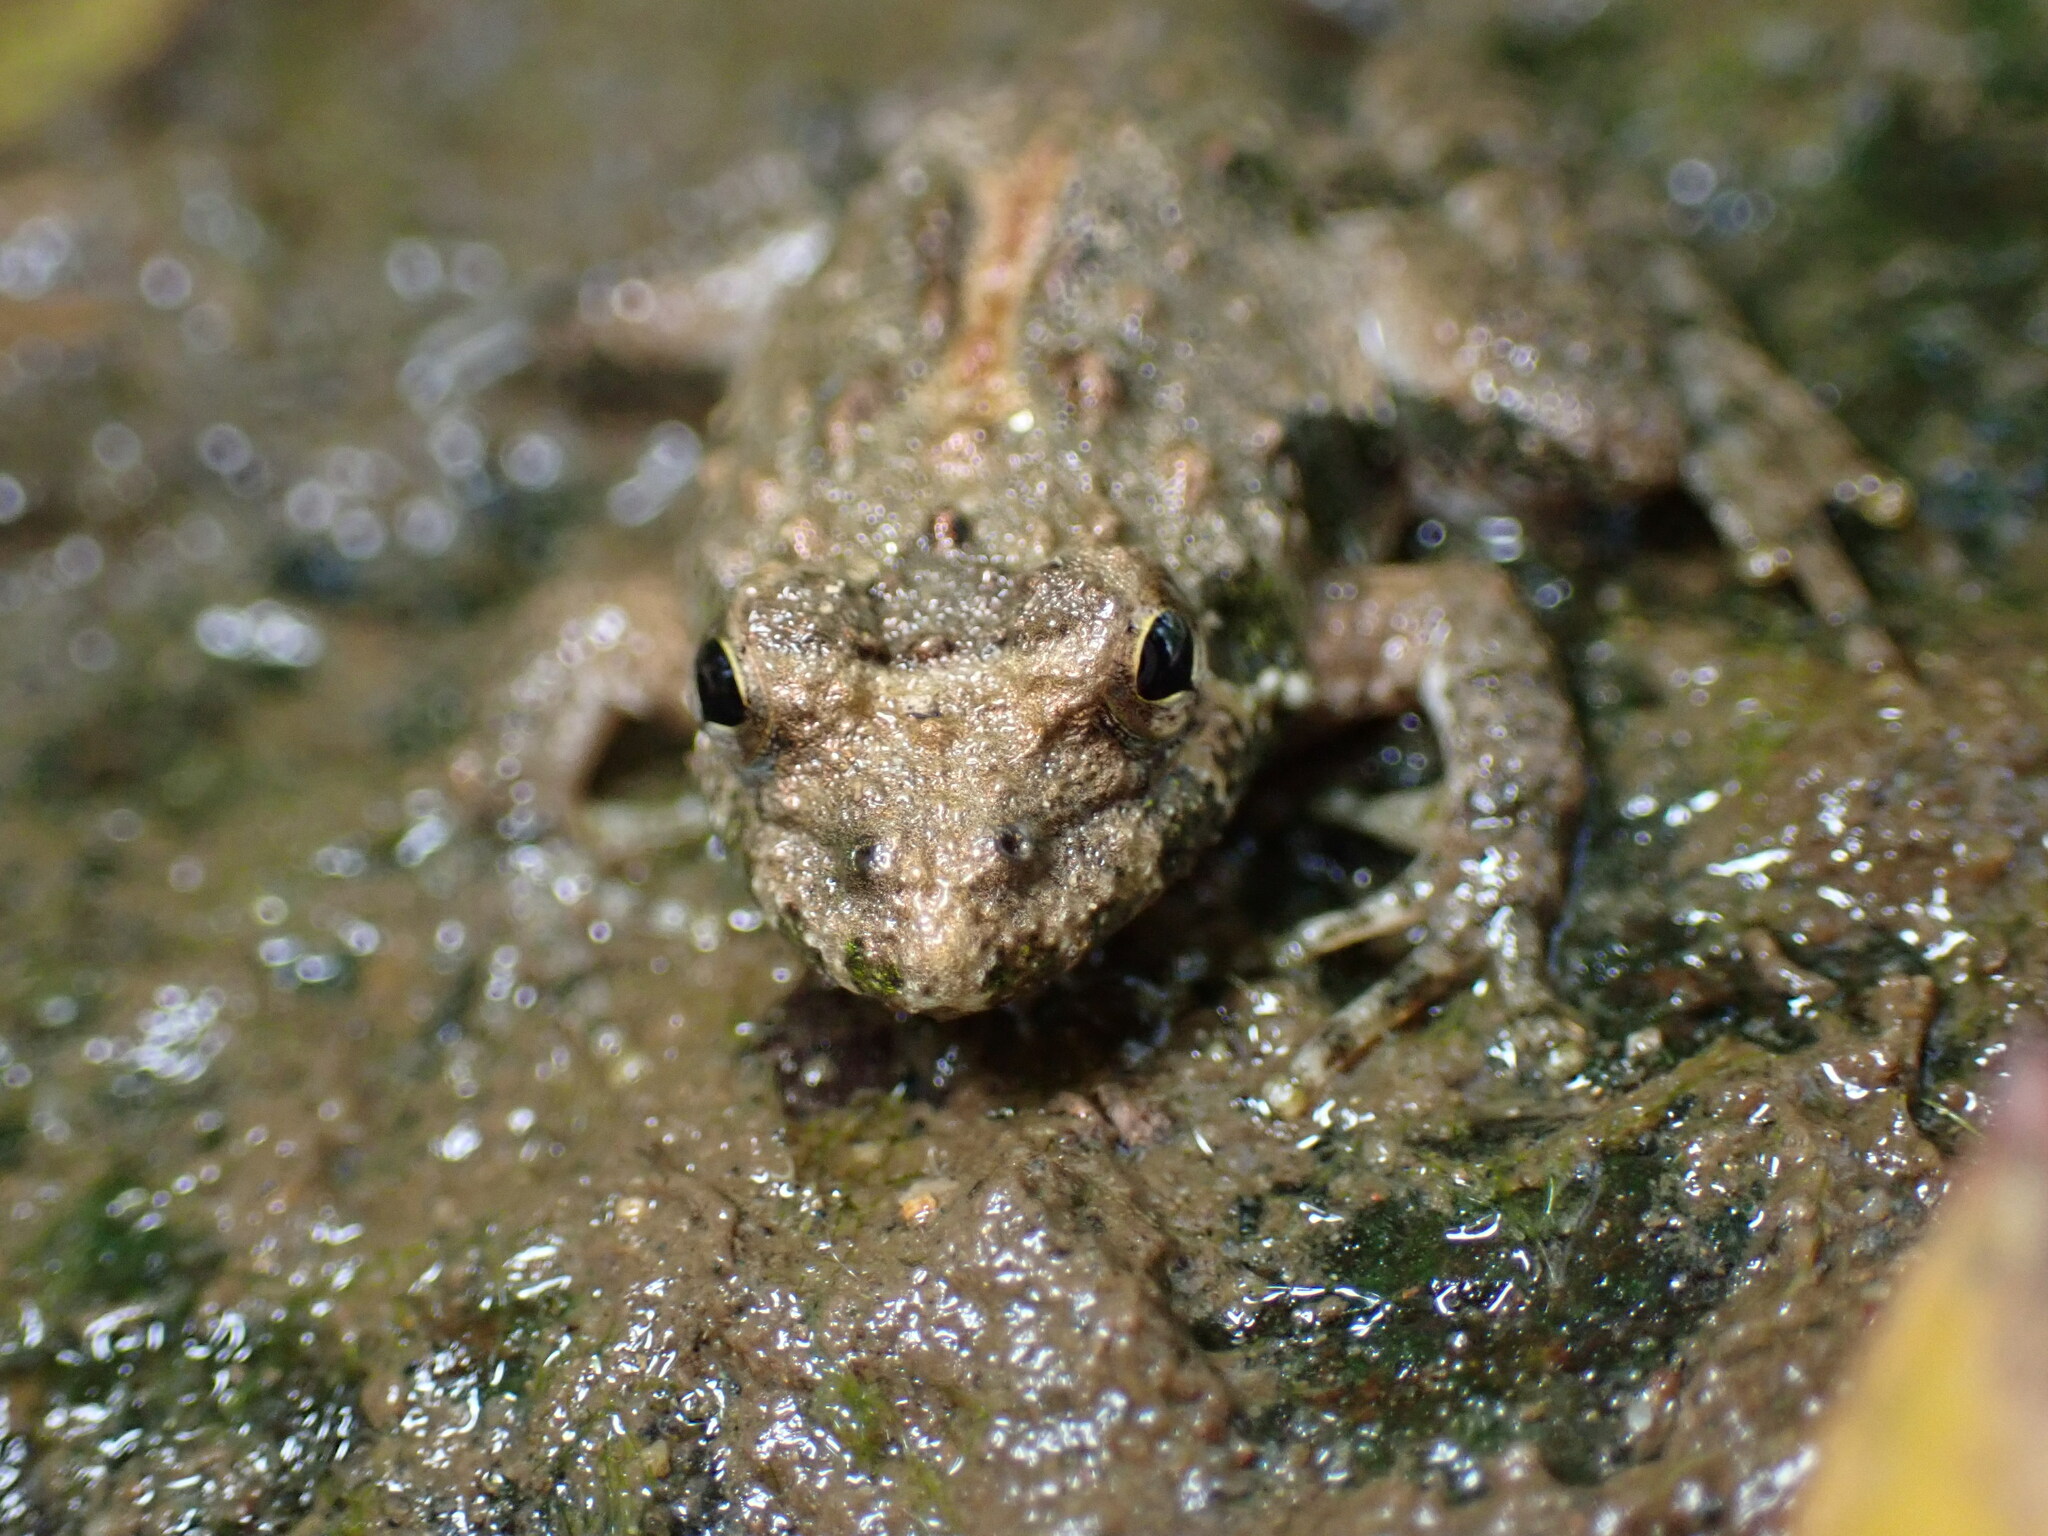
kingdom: Animalia
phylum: Chordata
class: Amphibia
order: Anura
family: Hylidae
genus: Acris
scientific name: Acris crepitans
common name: Northern cricket frog
